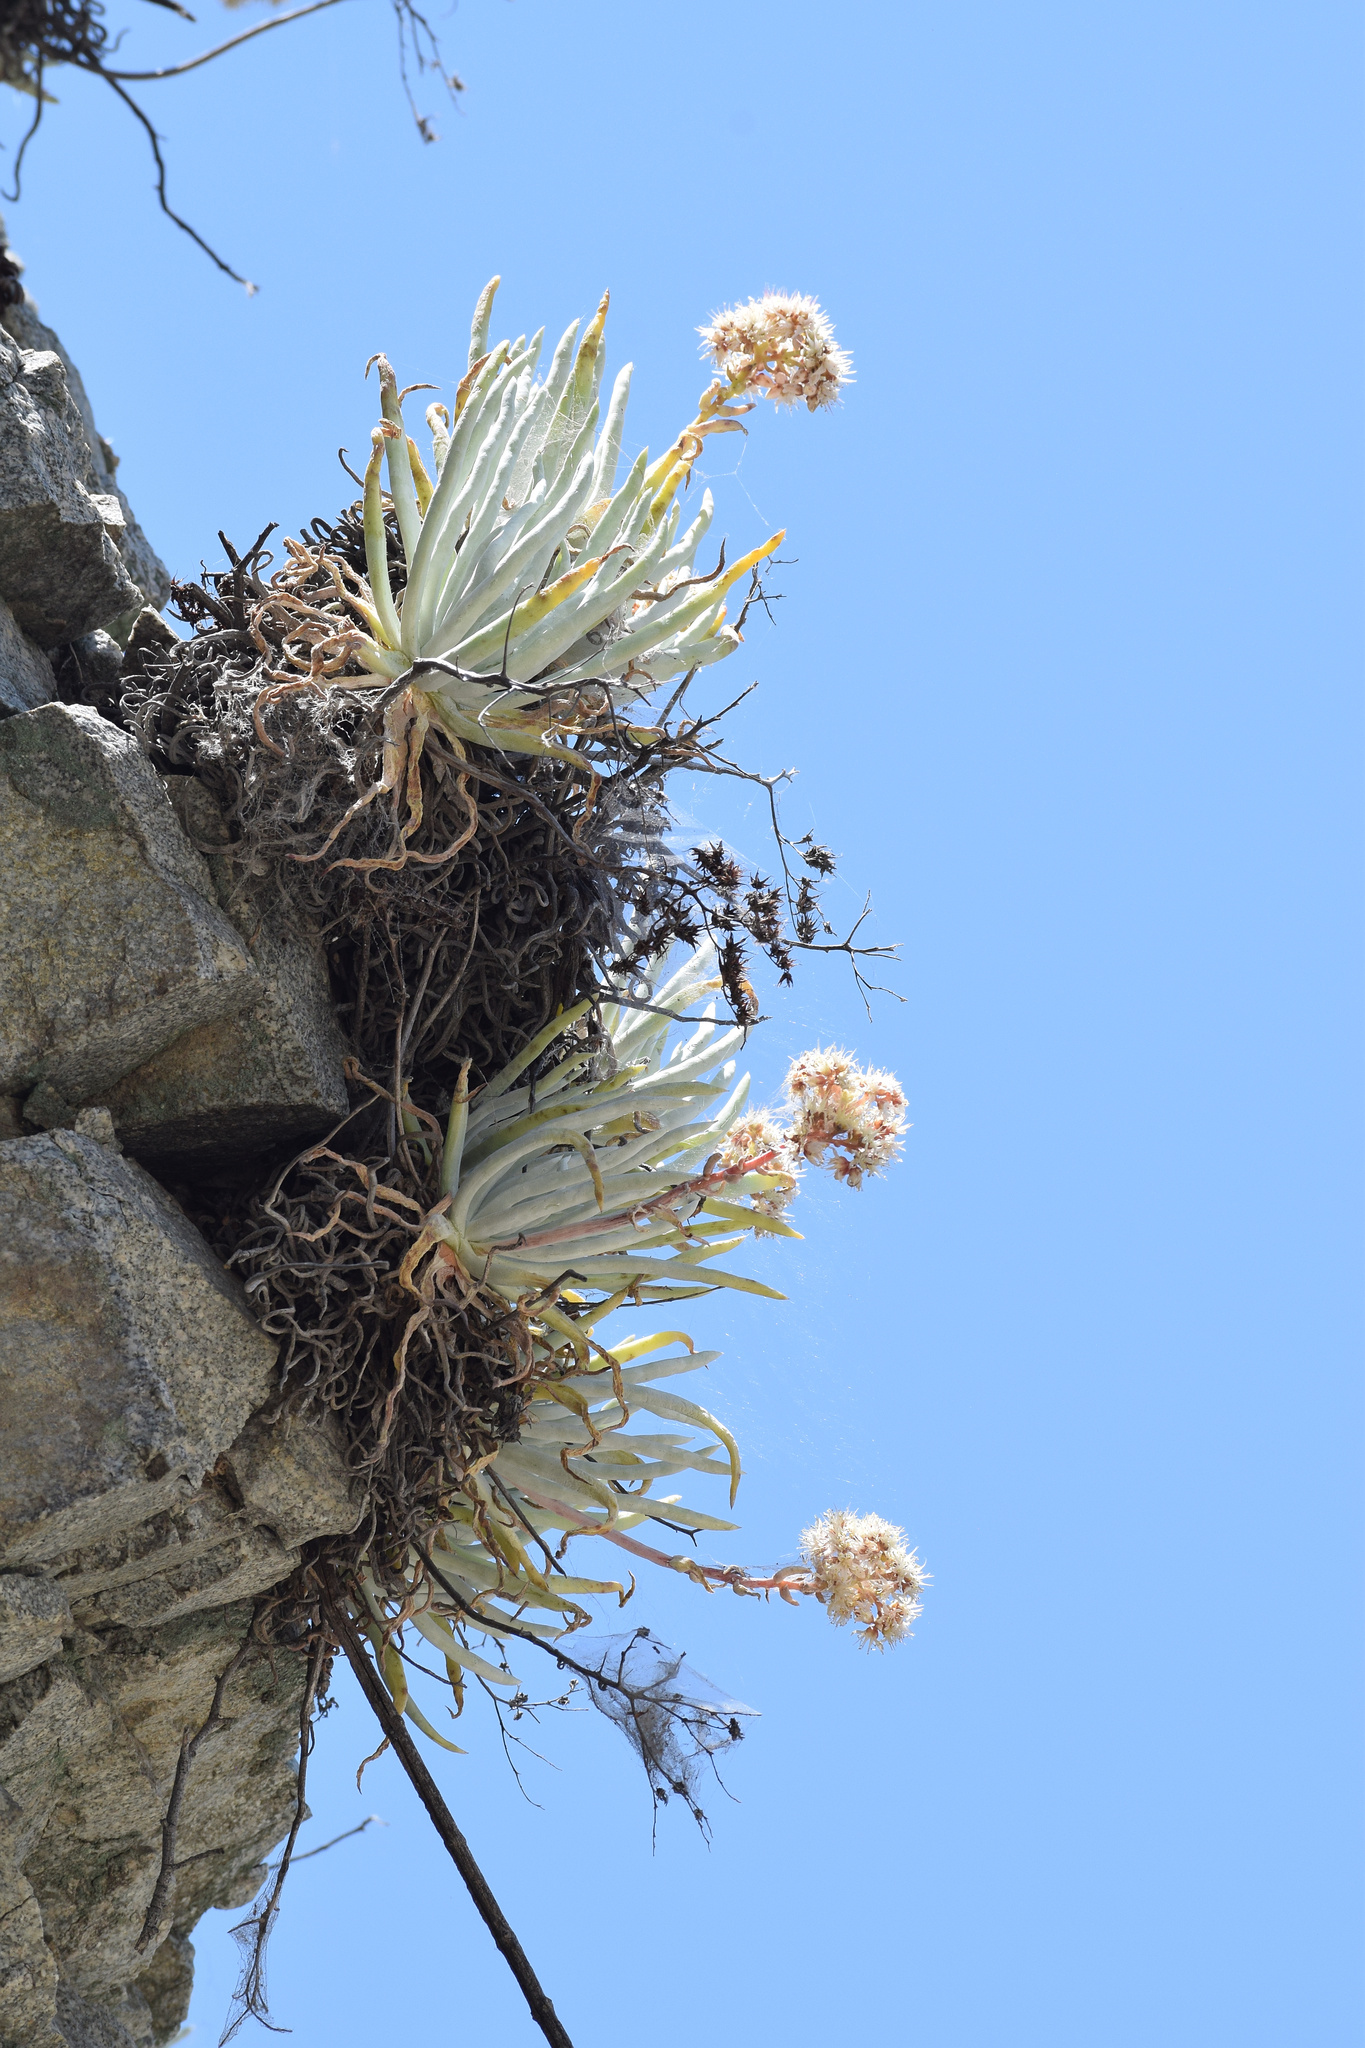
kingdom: Plantae
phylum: Tracheophyta
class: Magnoliopsida
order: Saxifragales
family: Crassulaceae
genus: Dudleya
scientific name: Dudleya densiflora
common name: San gabriel mountains dudleya
